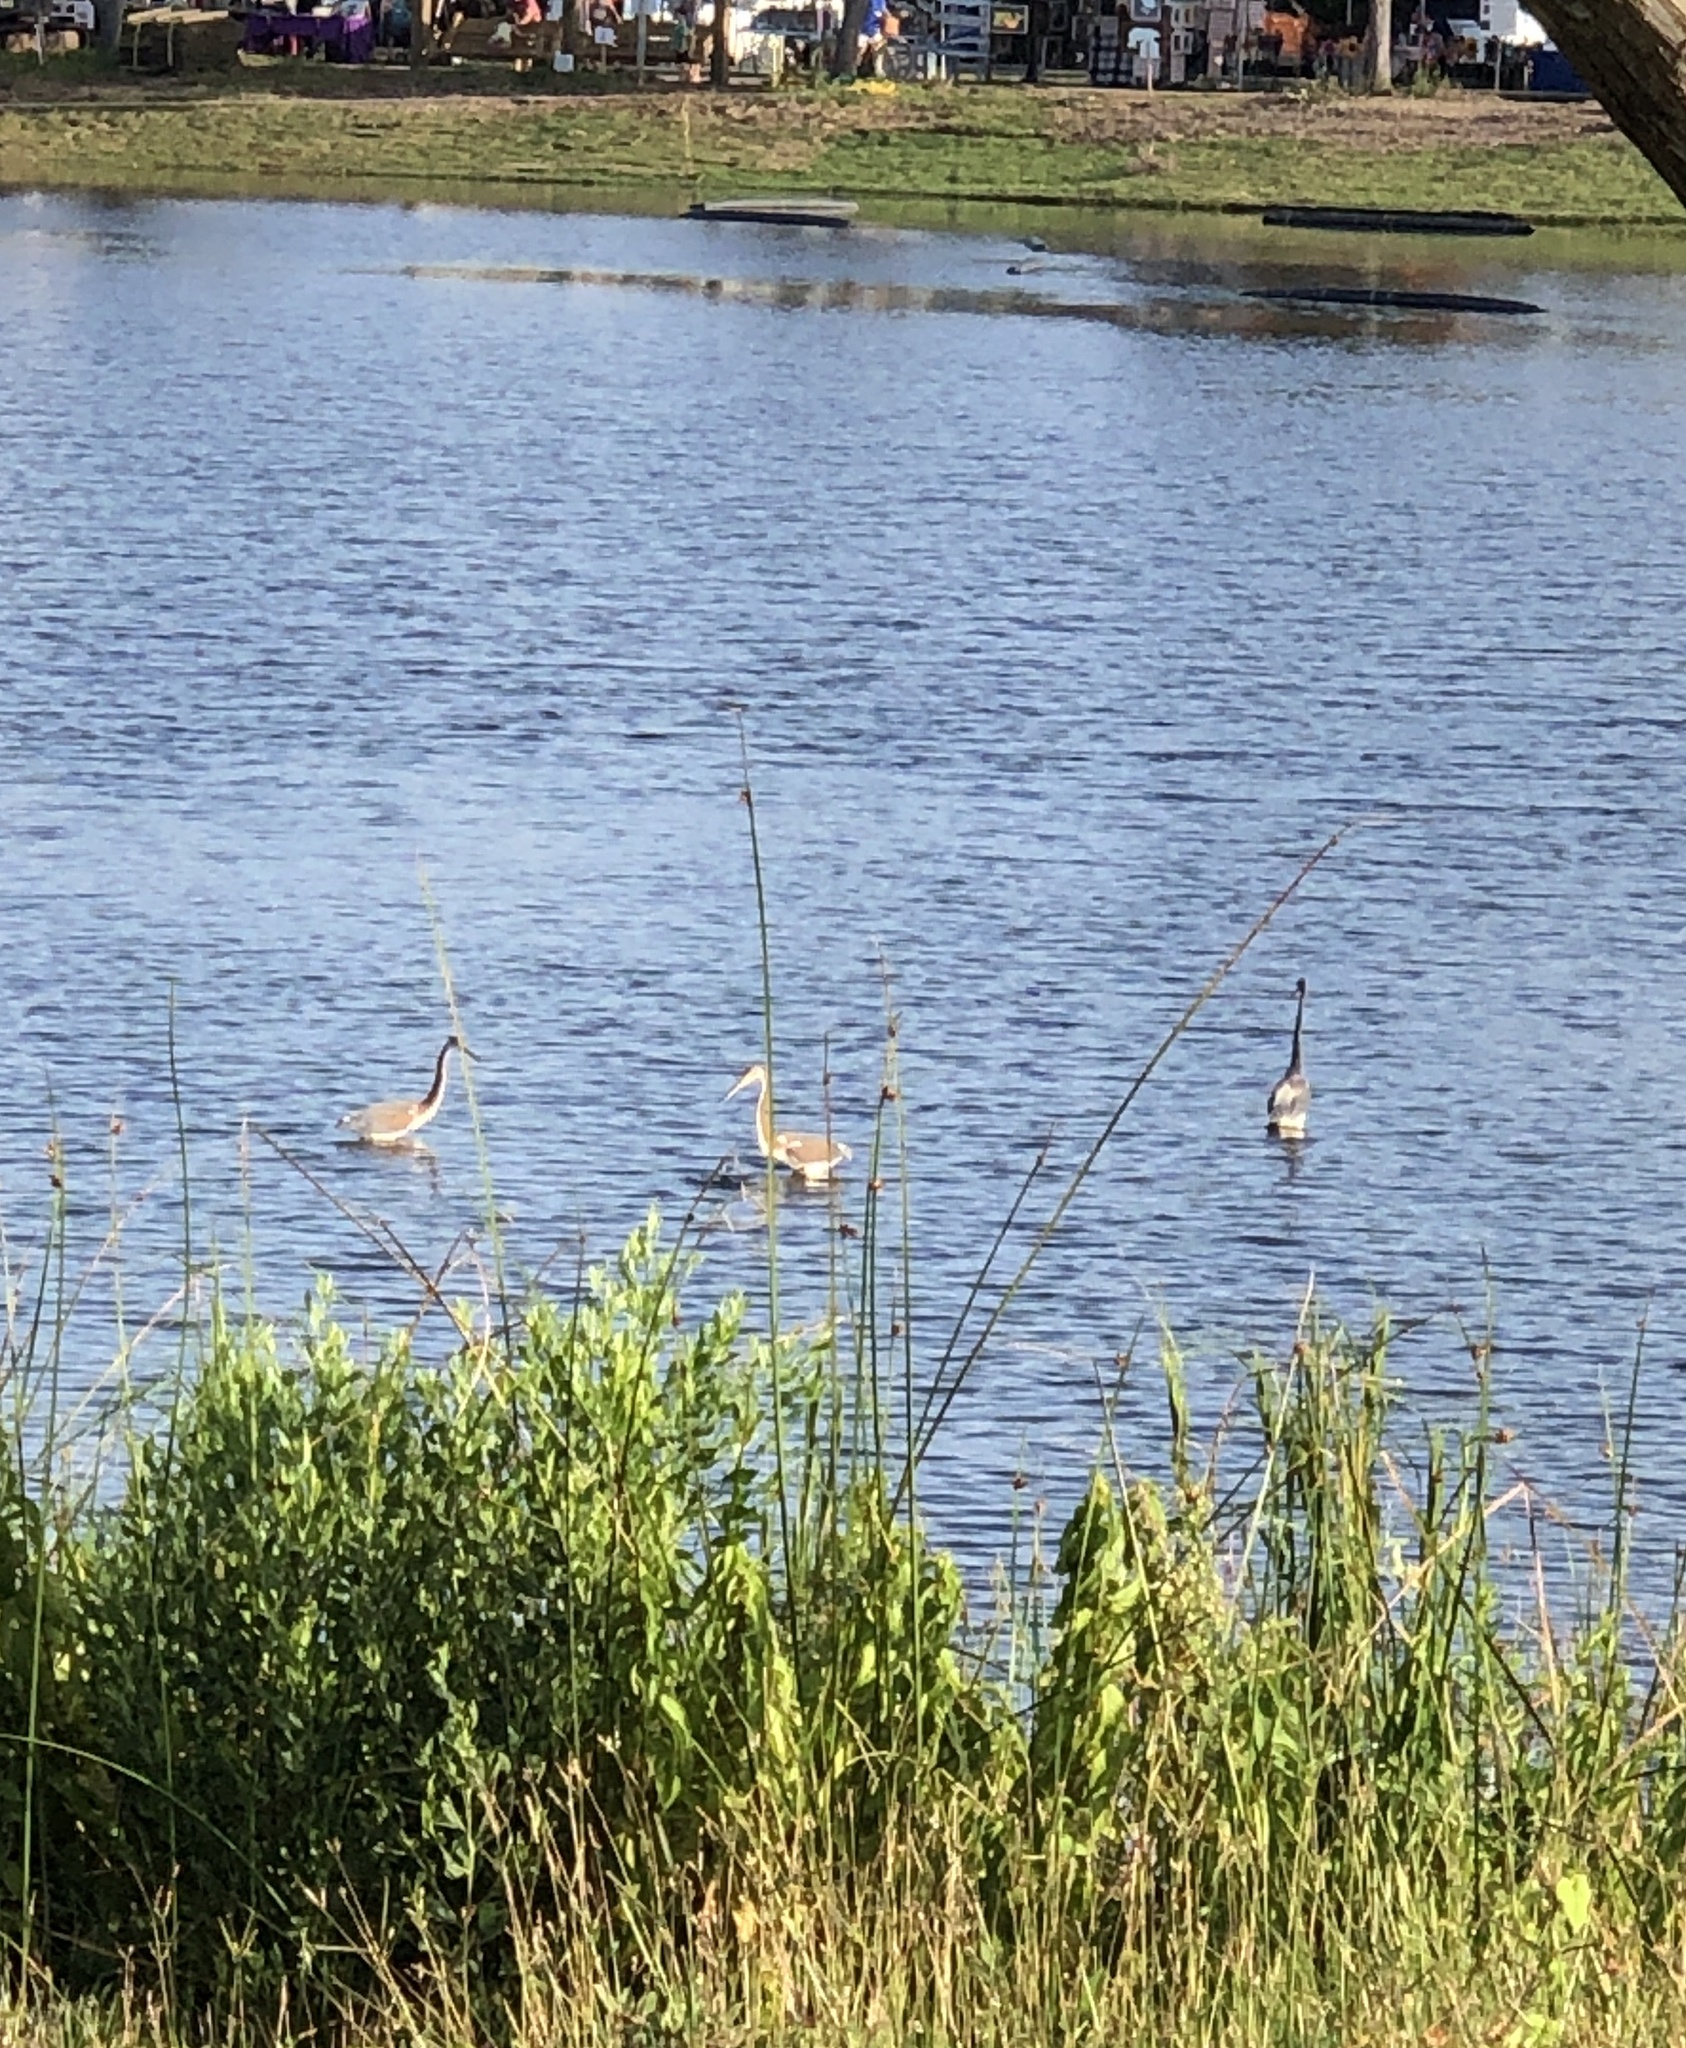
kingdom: Animalia
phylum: Chordata
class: Aves
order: Pelecaniformes
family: Ardeidae
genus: Egretta
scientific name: Egretta tricolor
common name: Tricolored heron
